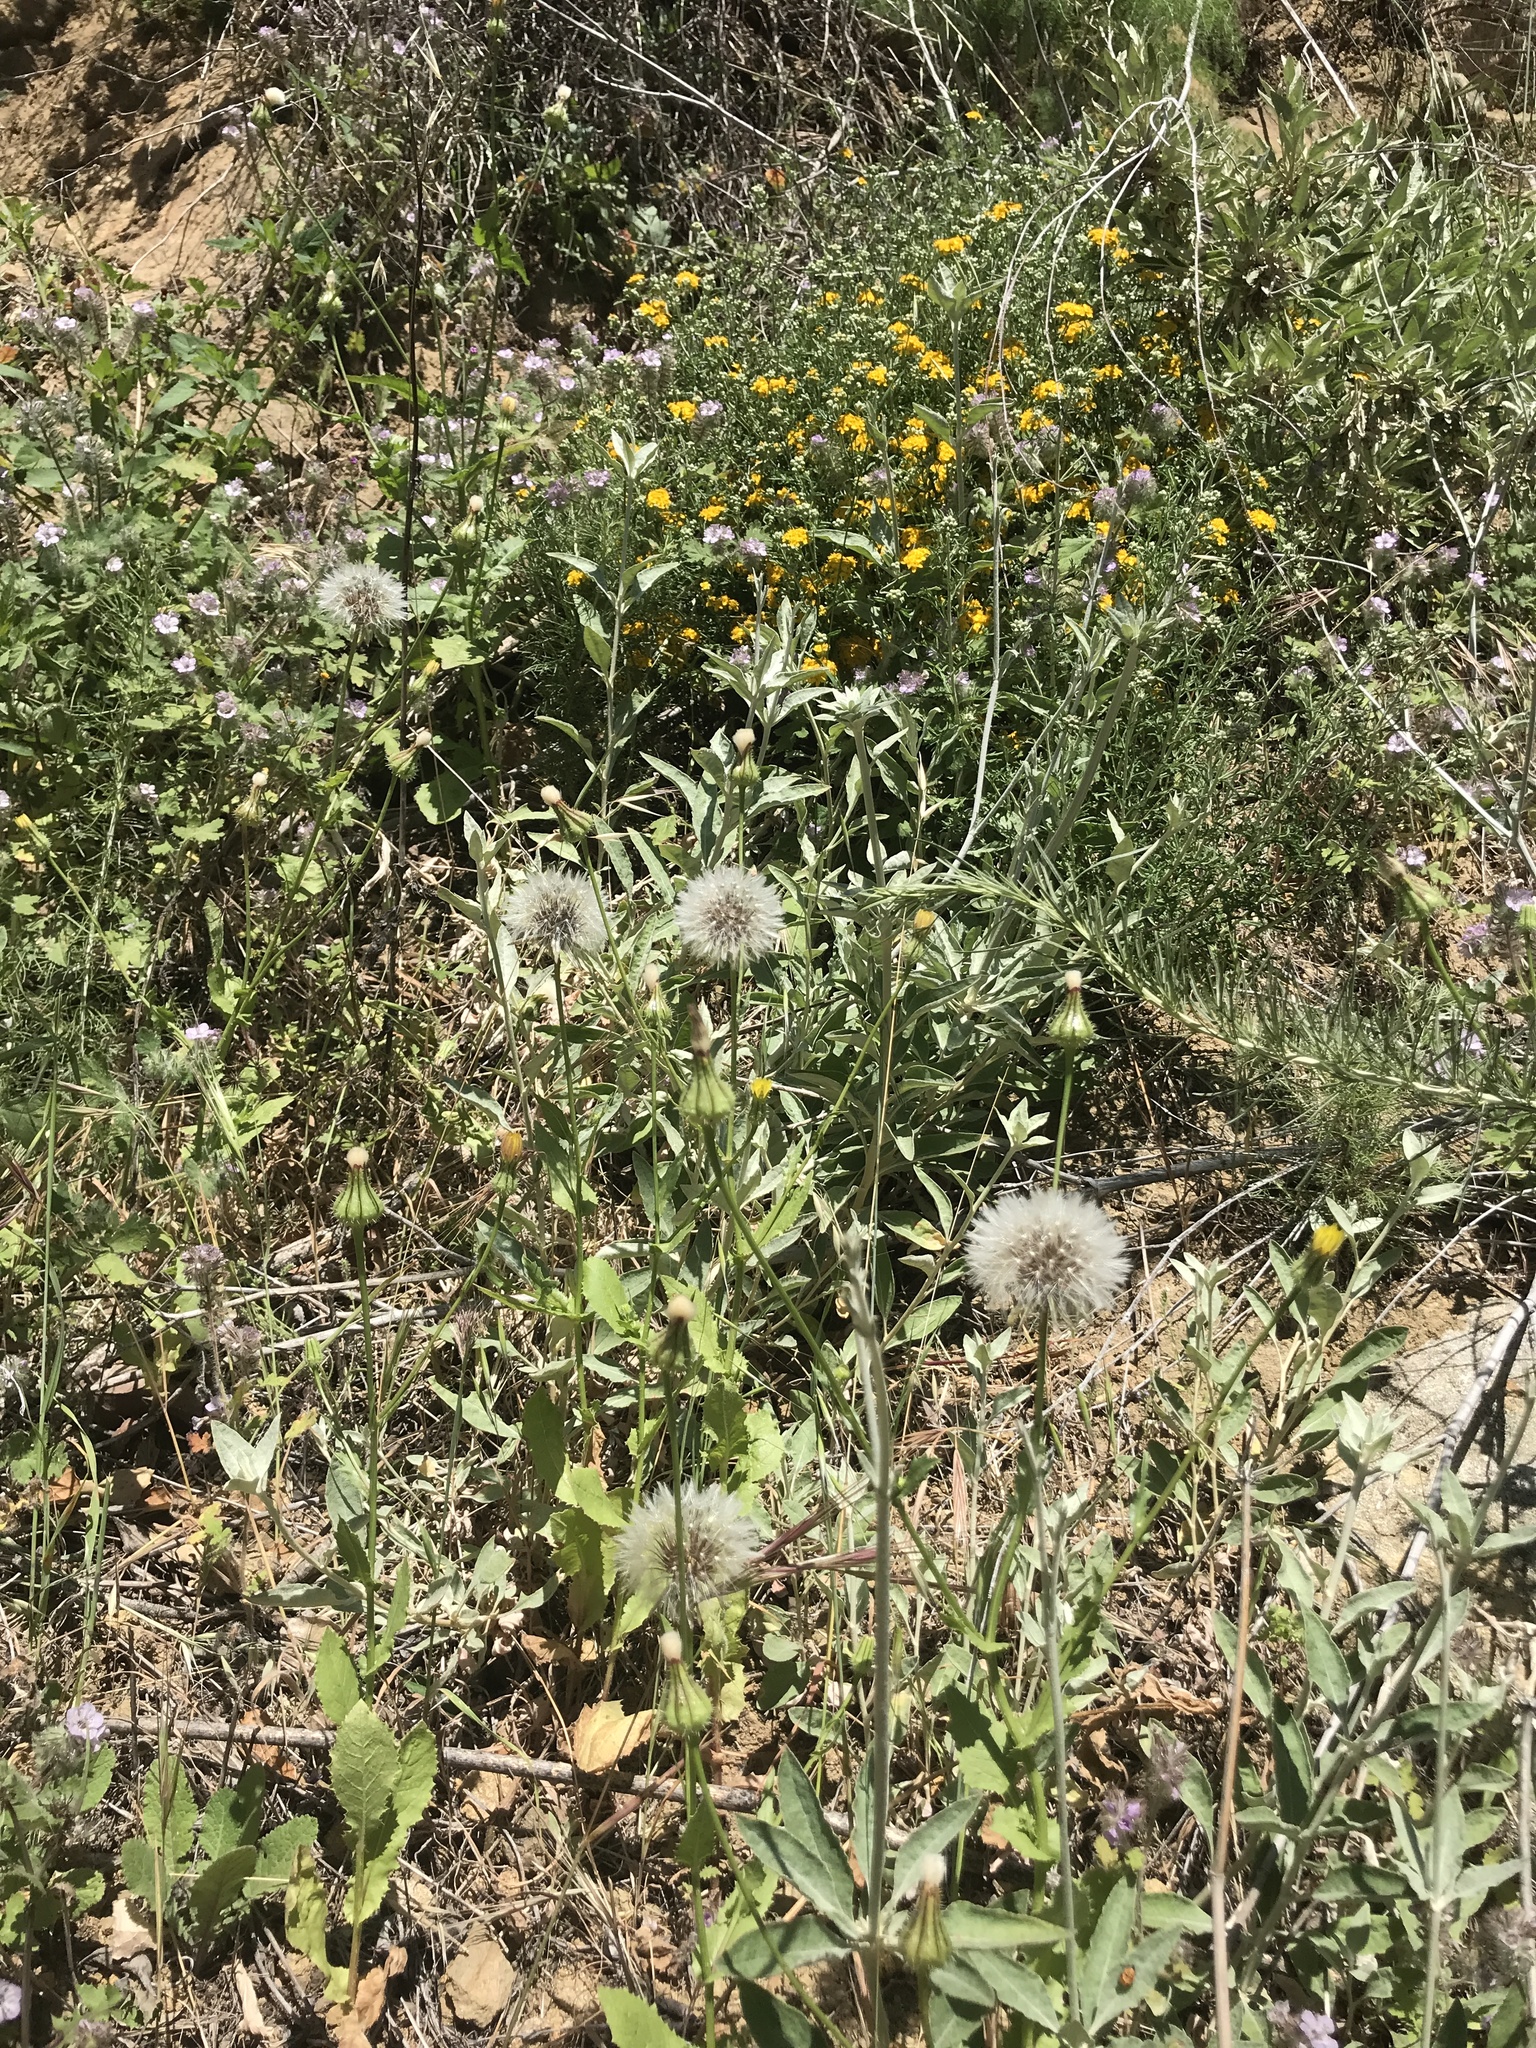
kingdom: Plantae
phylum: Tracheophyta
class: Magnoliopsida
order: Asterales
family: Asteraceae
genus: Urospermum
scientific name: Urospermum picroides
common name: False hawkbit
